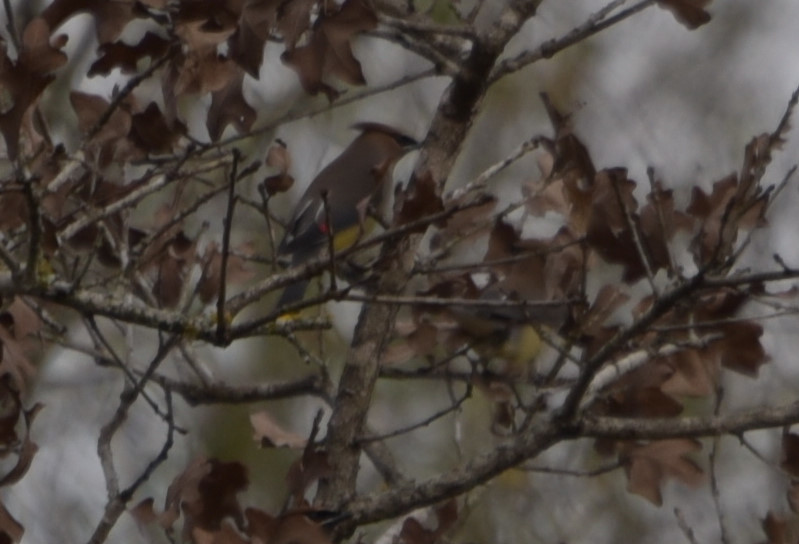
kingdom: Animalia
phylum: Chordata
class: Aves
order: Passeriformes
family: Bombycillidae
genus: Bombycilla
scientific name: Bombycilla cedrorum
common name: Cedar waxwing
